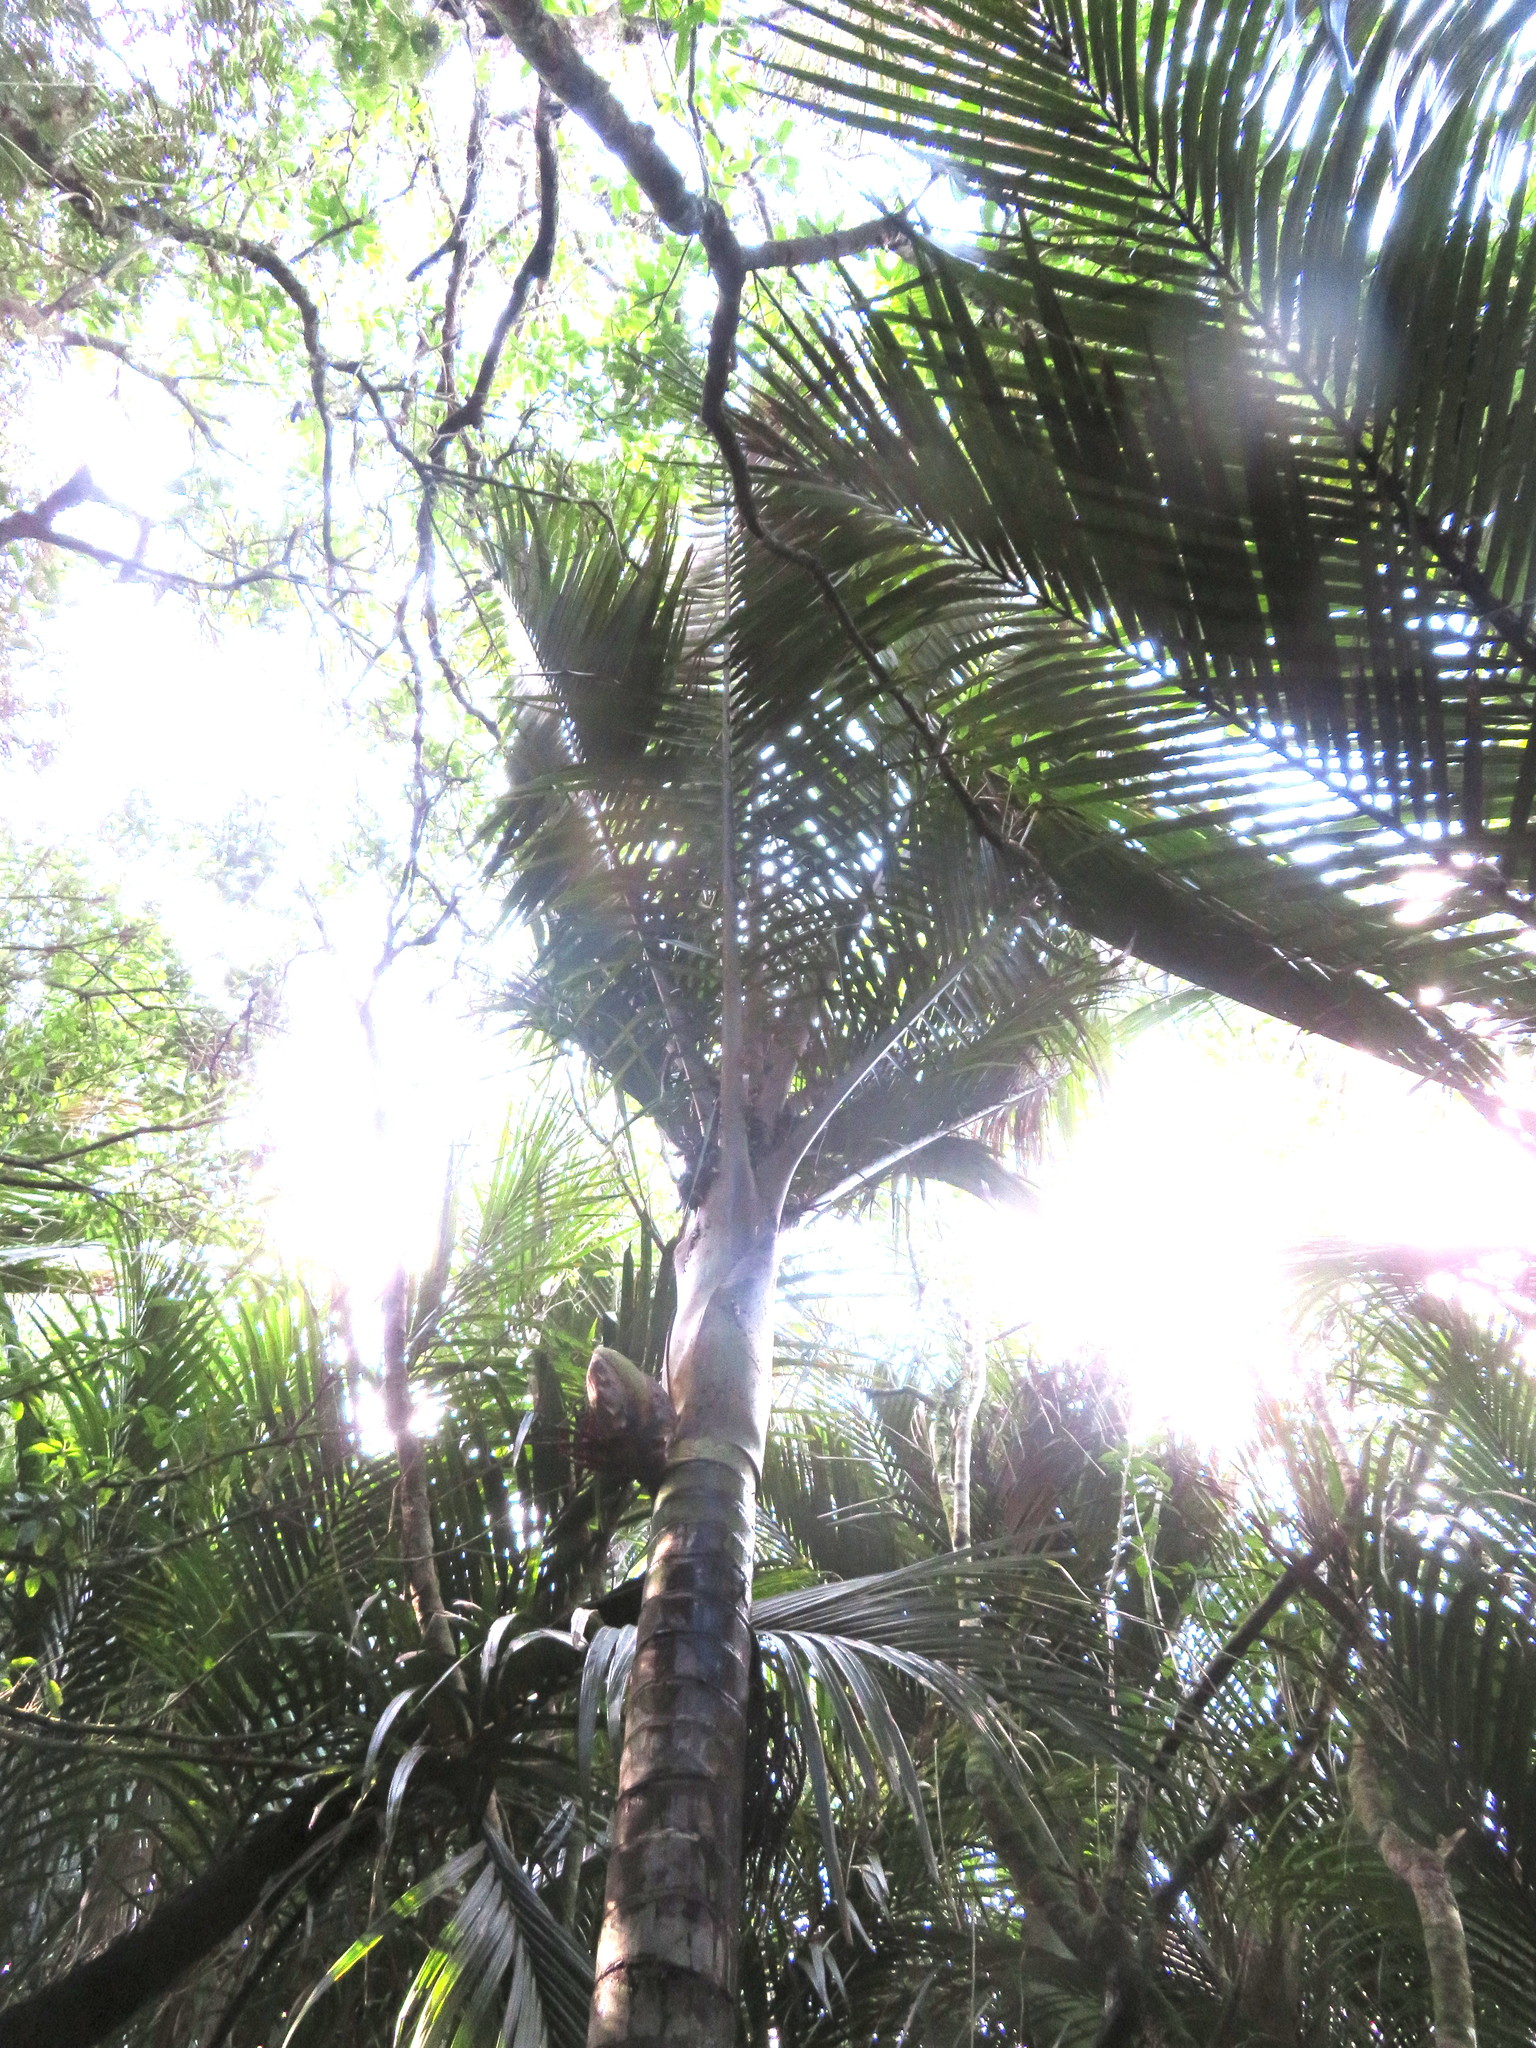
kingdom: Plantae
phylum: Tracheophyta
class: Liliopsida
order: Arecales
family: Arecaceae
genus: Rhopalostylis
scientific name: Rhopalostylis sapida
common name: Feather-duster palm
